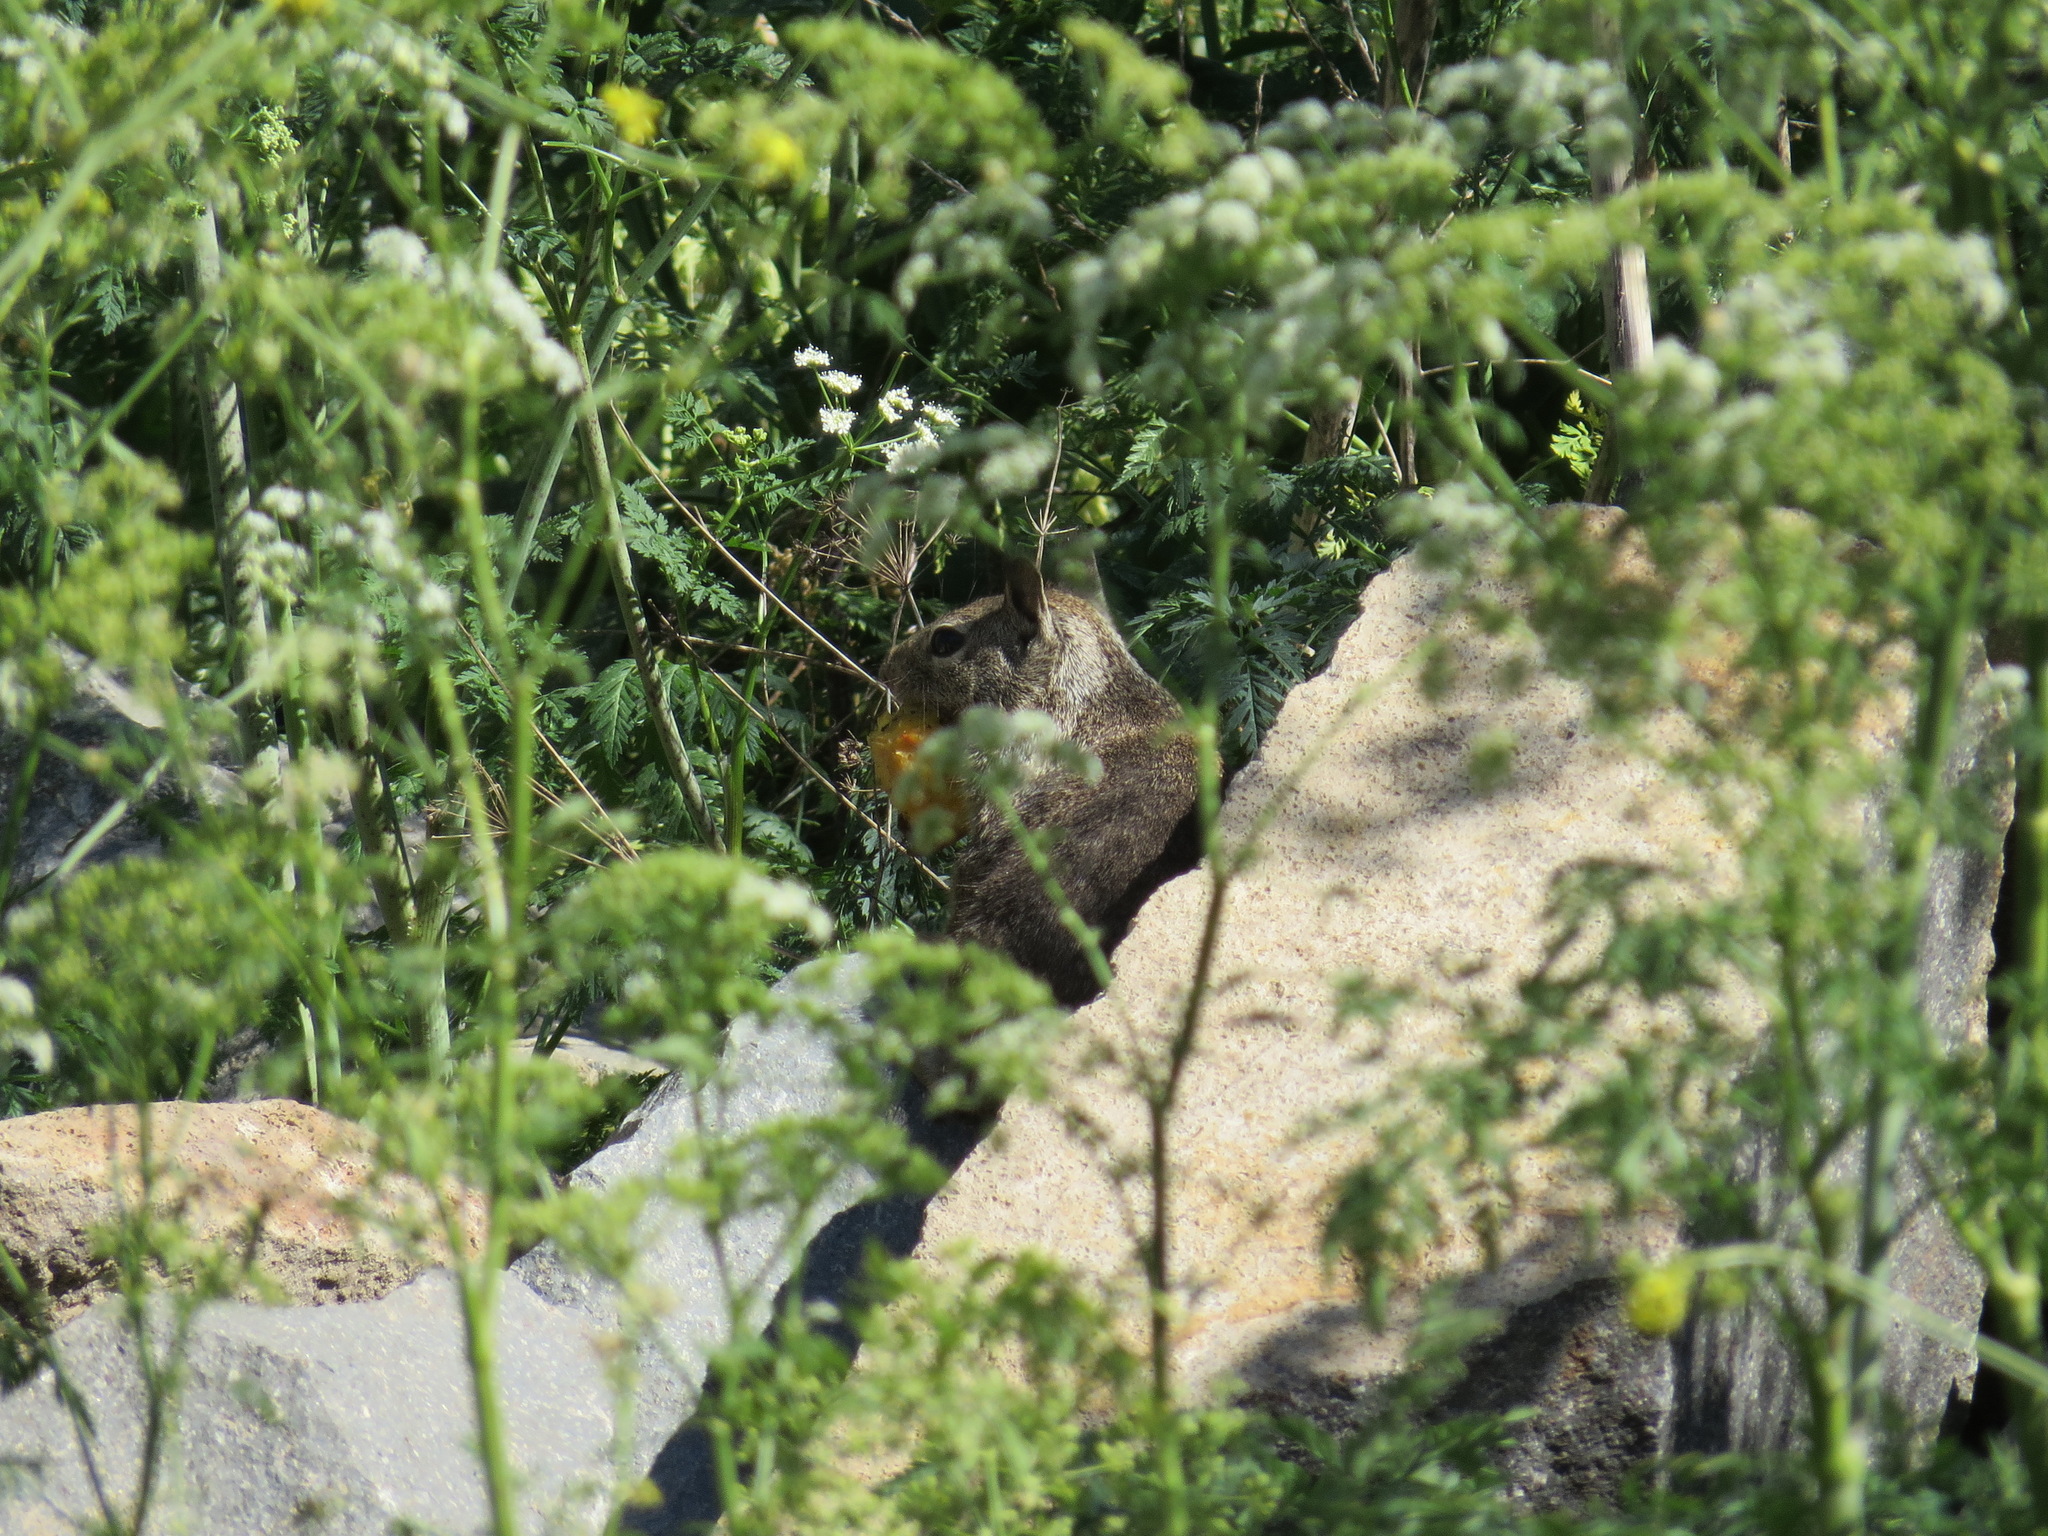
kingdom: Animalia
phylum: Chordata
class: Mammalia
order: Rodentia
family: Sciuridae
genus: Otospermophilus
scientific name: Otospermophilus beecheyi
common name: California ground squirrel
